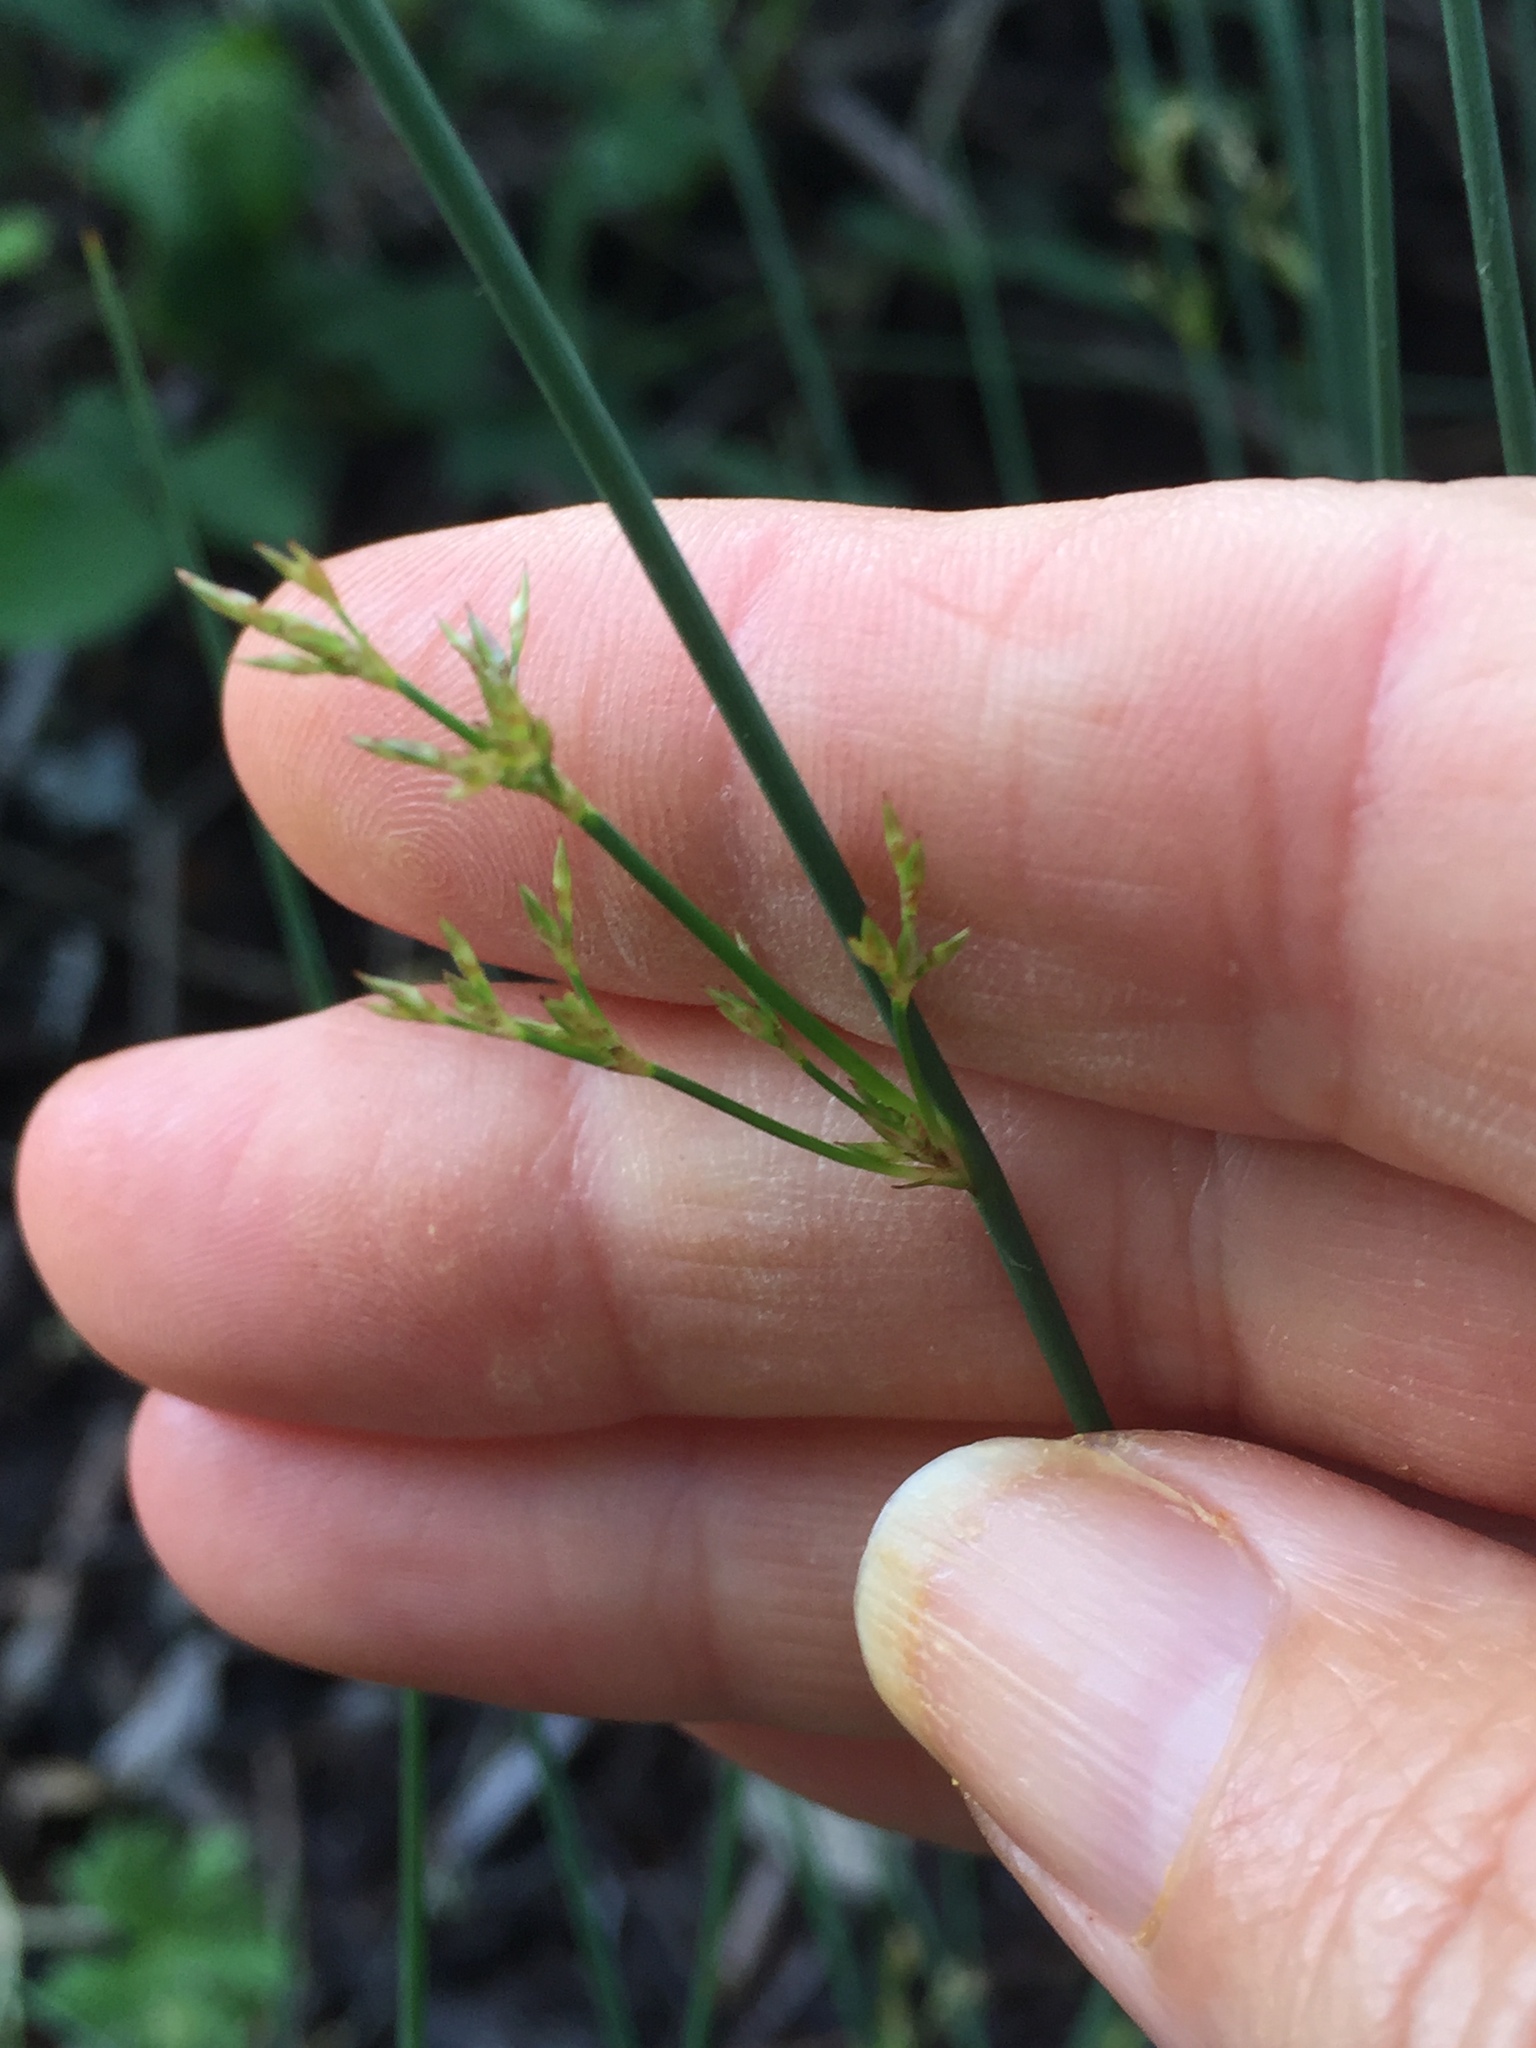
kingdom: Plantae
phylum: Tracheophyta
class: Liliopsida
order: Poales
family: Juncaceae
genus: Juncus
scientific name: Juncus patens
